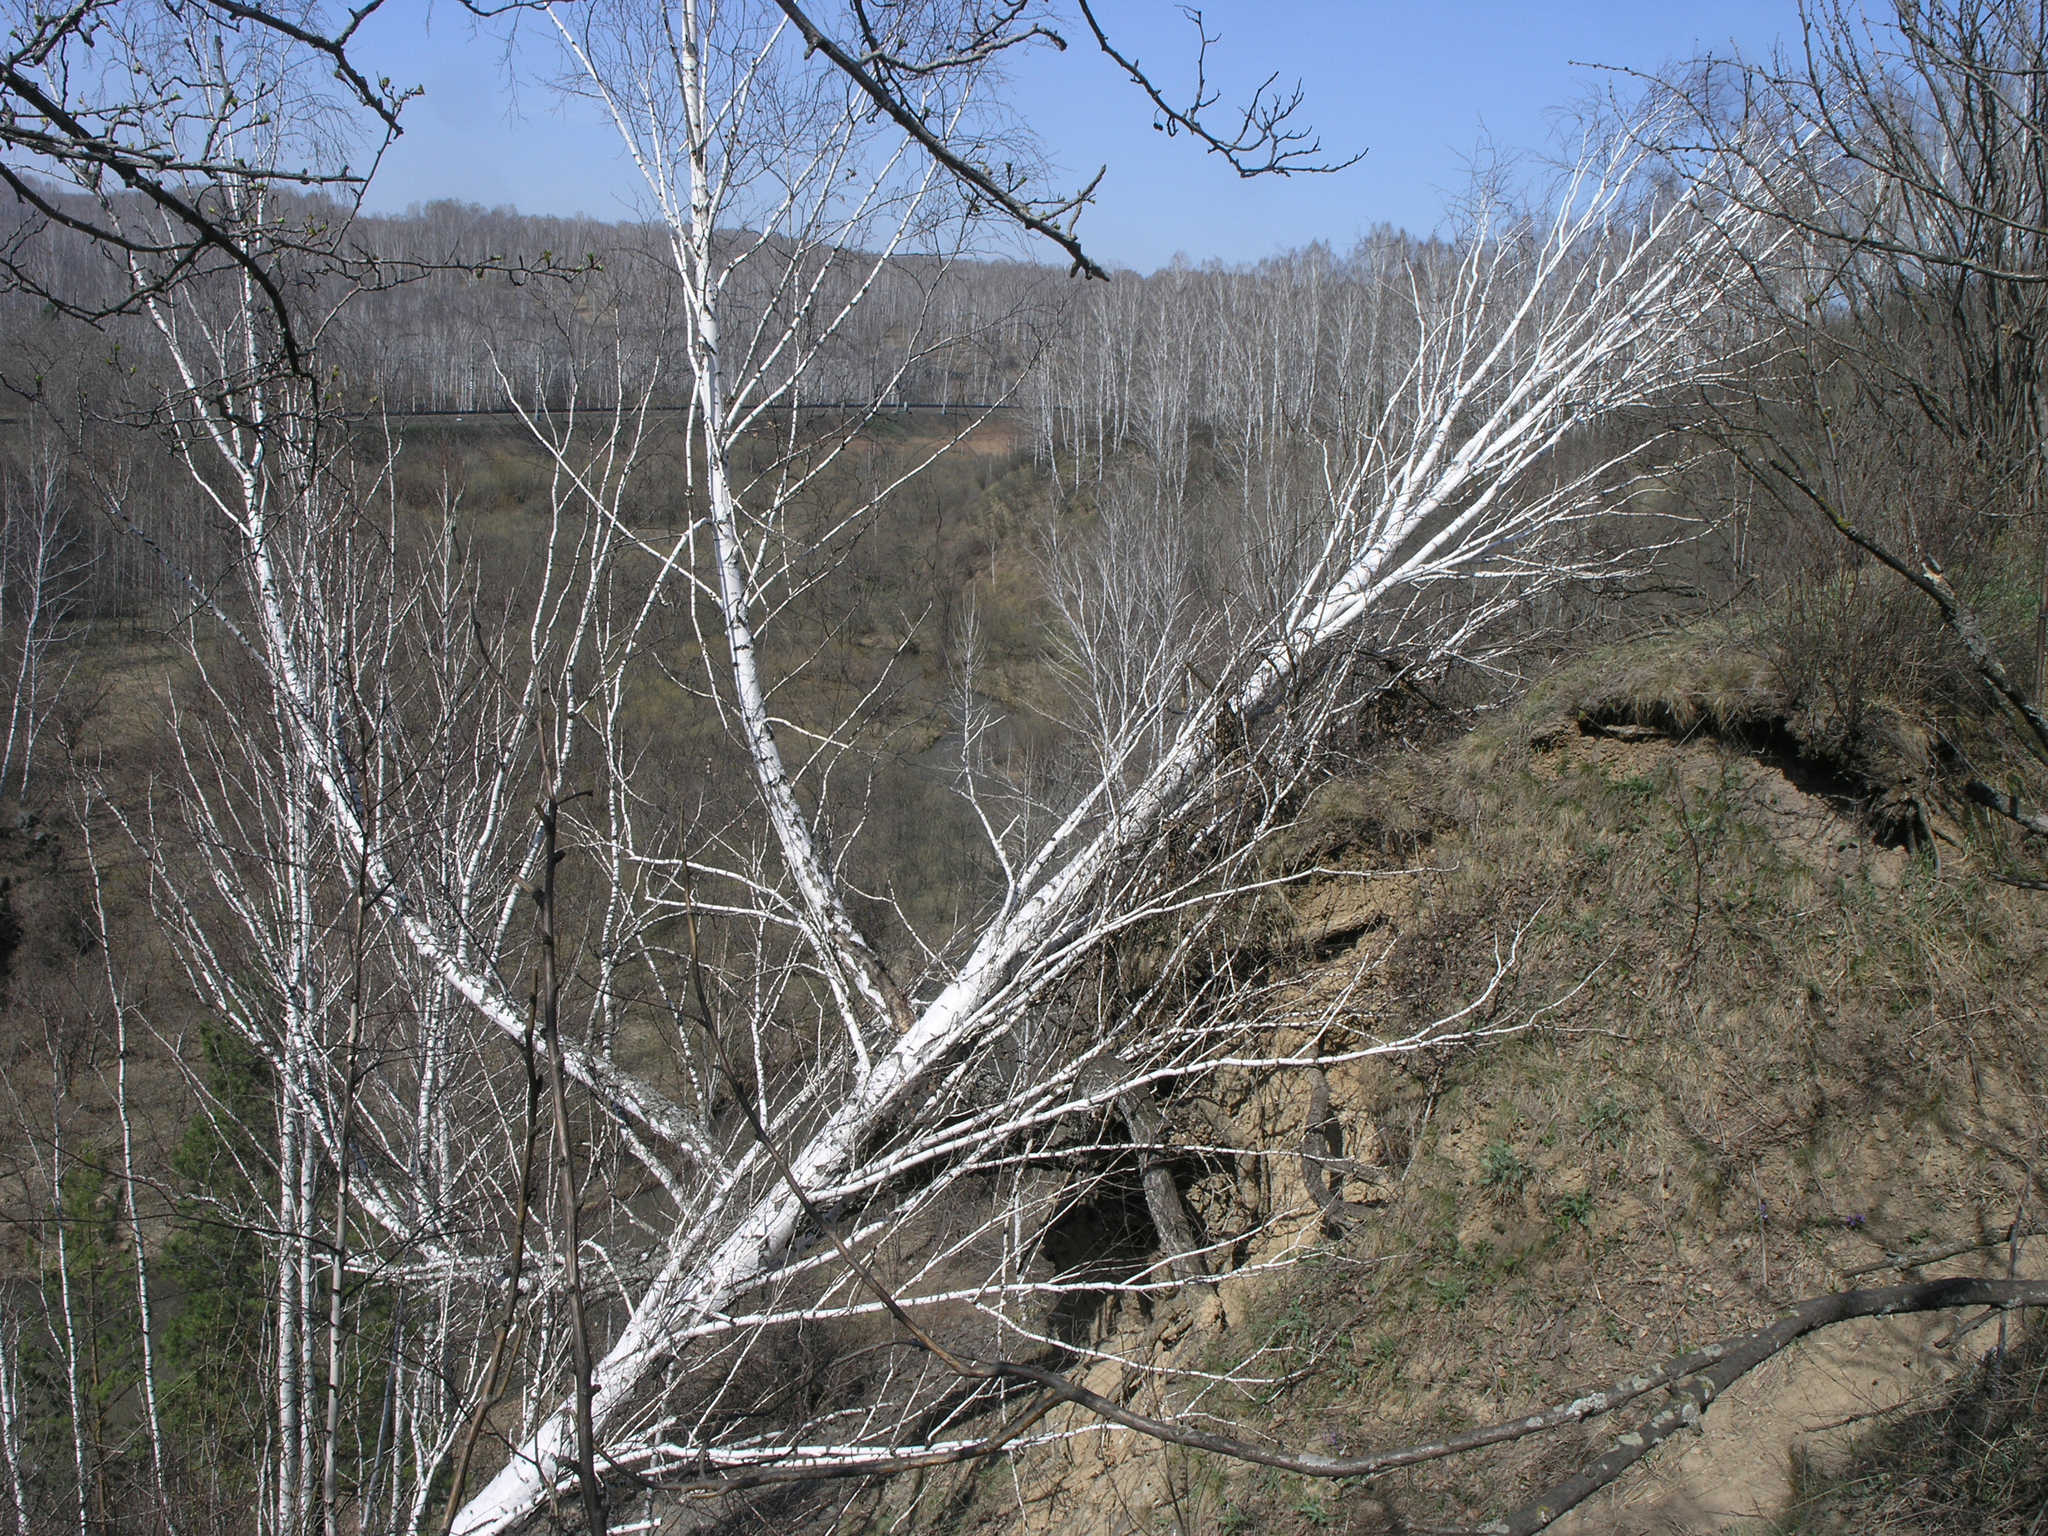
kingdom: Plantae
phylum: Tracheophyta
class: Magnoliopsida
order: Fagales
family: Betulaceae
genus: Betula
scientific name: Betula pendula
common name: Silver birch
